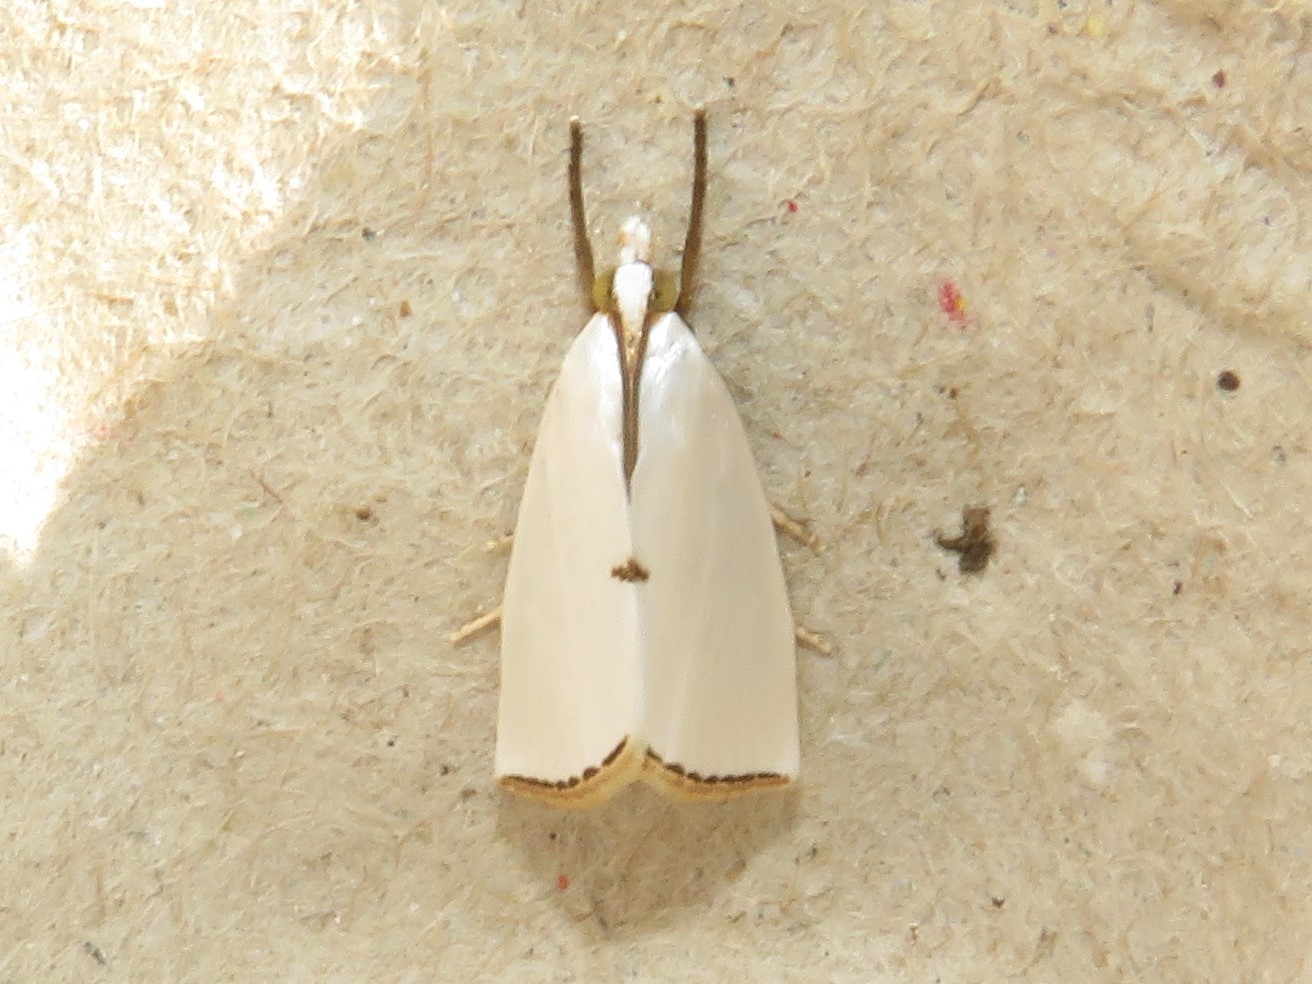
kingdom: Animalia
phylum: Arthropoda
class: Insecta
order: Lepidoptera
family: Crambidae
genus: Argyria
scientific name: Argyria nivalis
